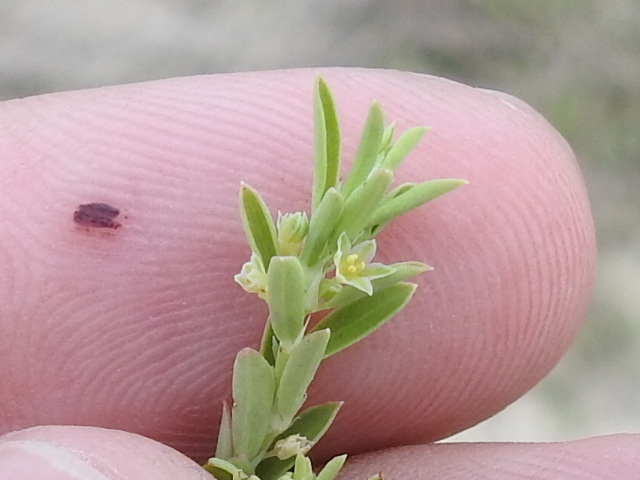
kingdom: Plantae
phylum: Tracheophyta
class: Magnoliopsida
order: Malpighiales
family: Phyllanthaceae
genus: Phyllanthus
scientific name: Phyllanthus polygonoides
